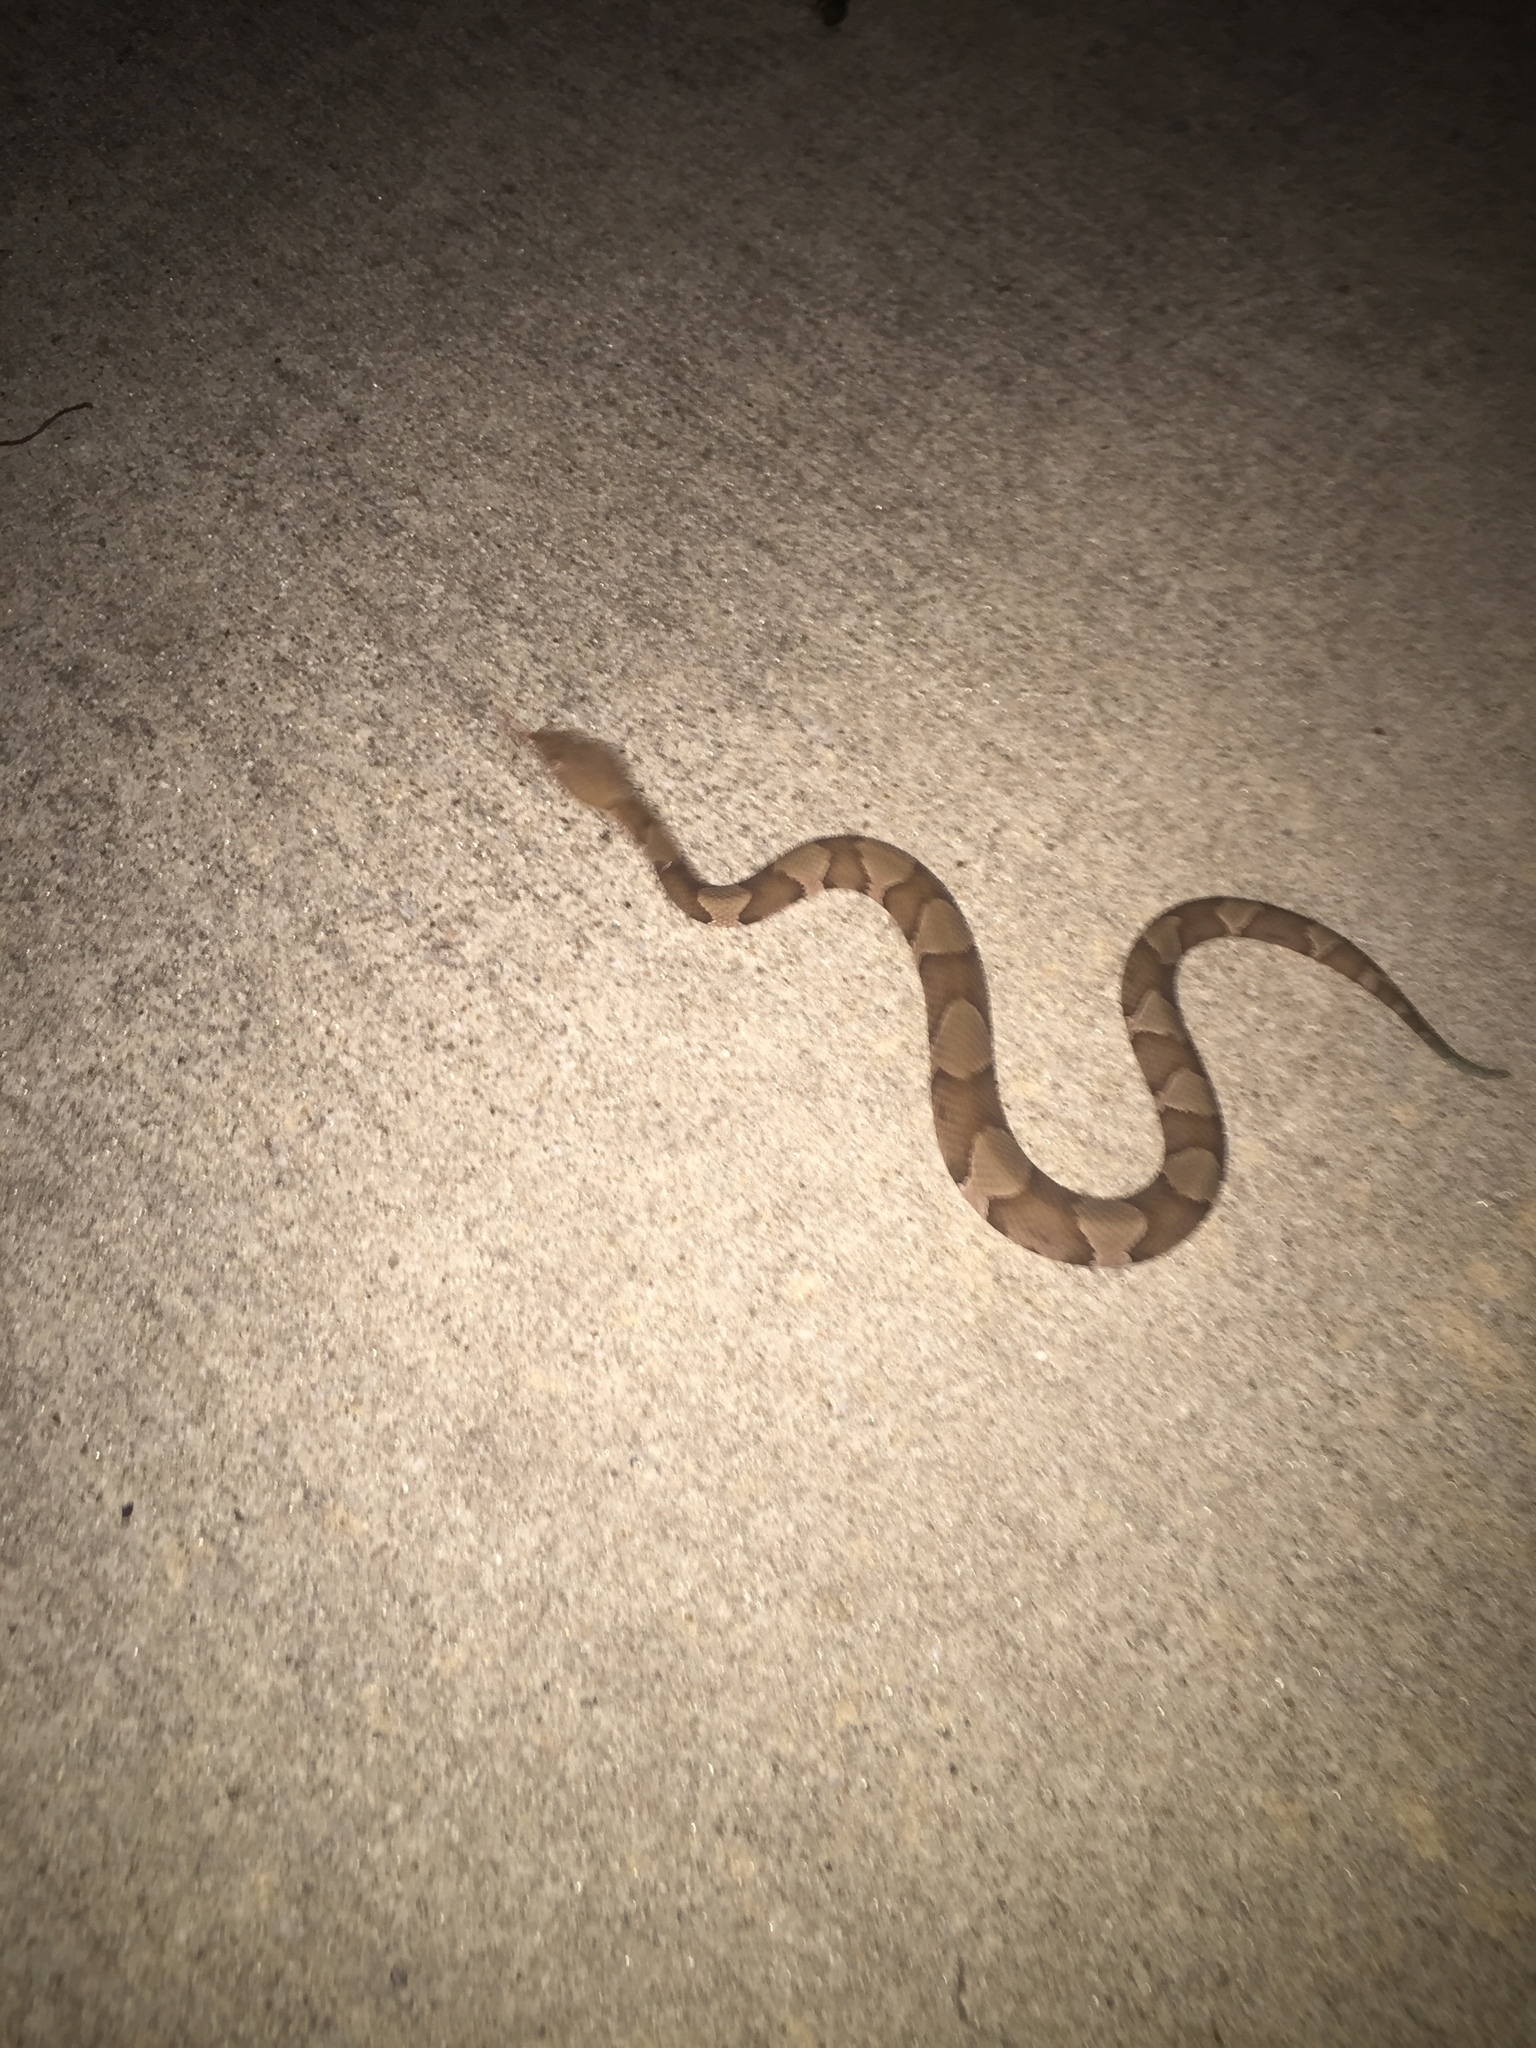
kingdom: Animalia
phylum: Chordata
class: Squamata
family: Viperidae
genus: Agkistrodon
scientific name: Agkistrodon laticinctus
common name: Broad-banded copperhead
